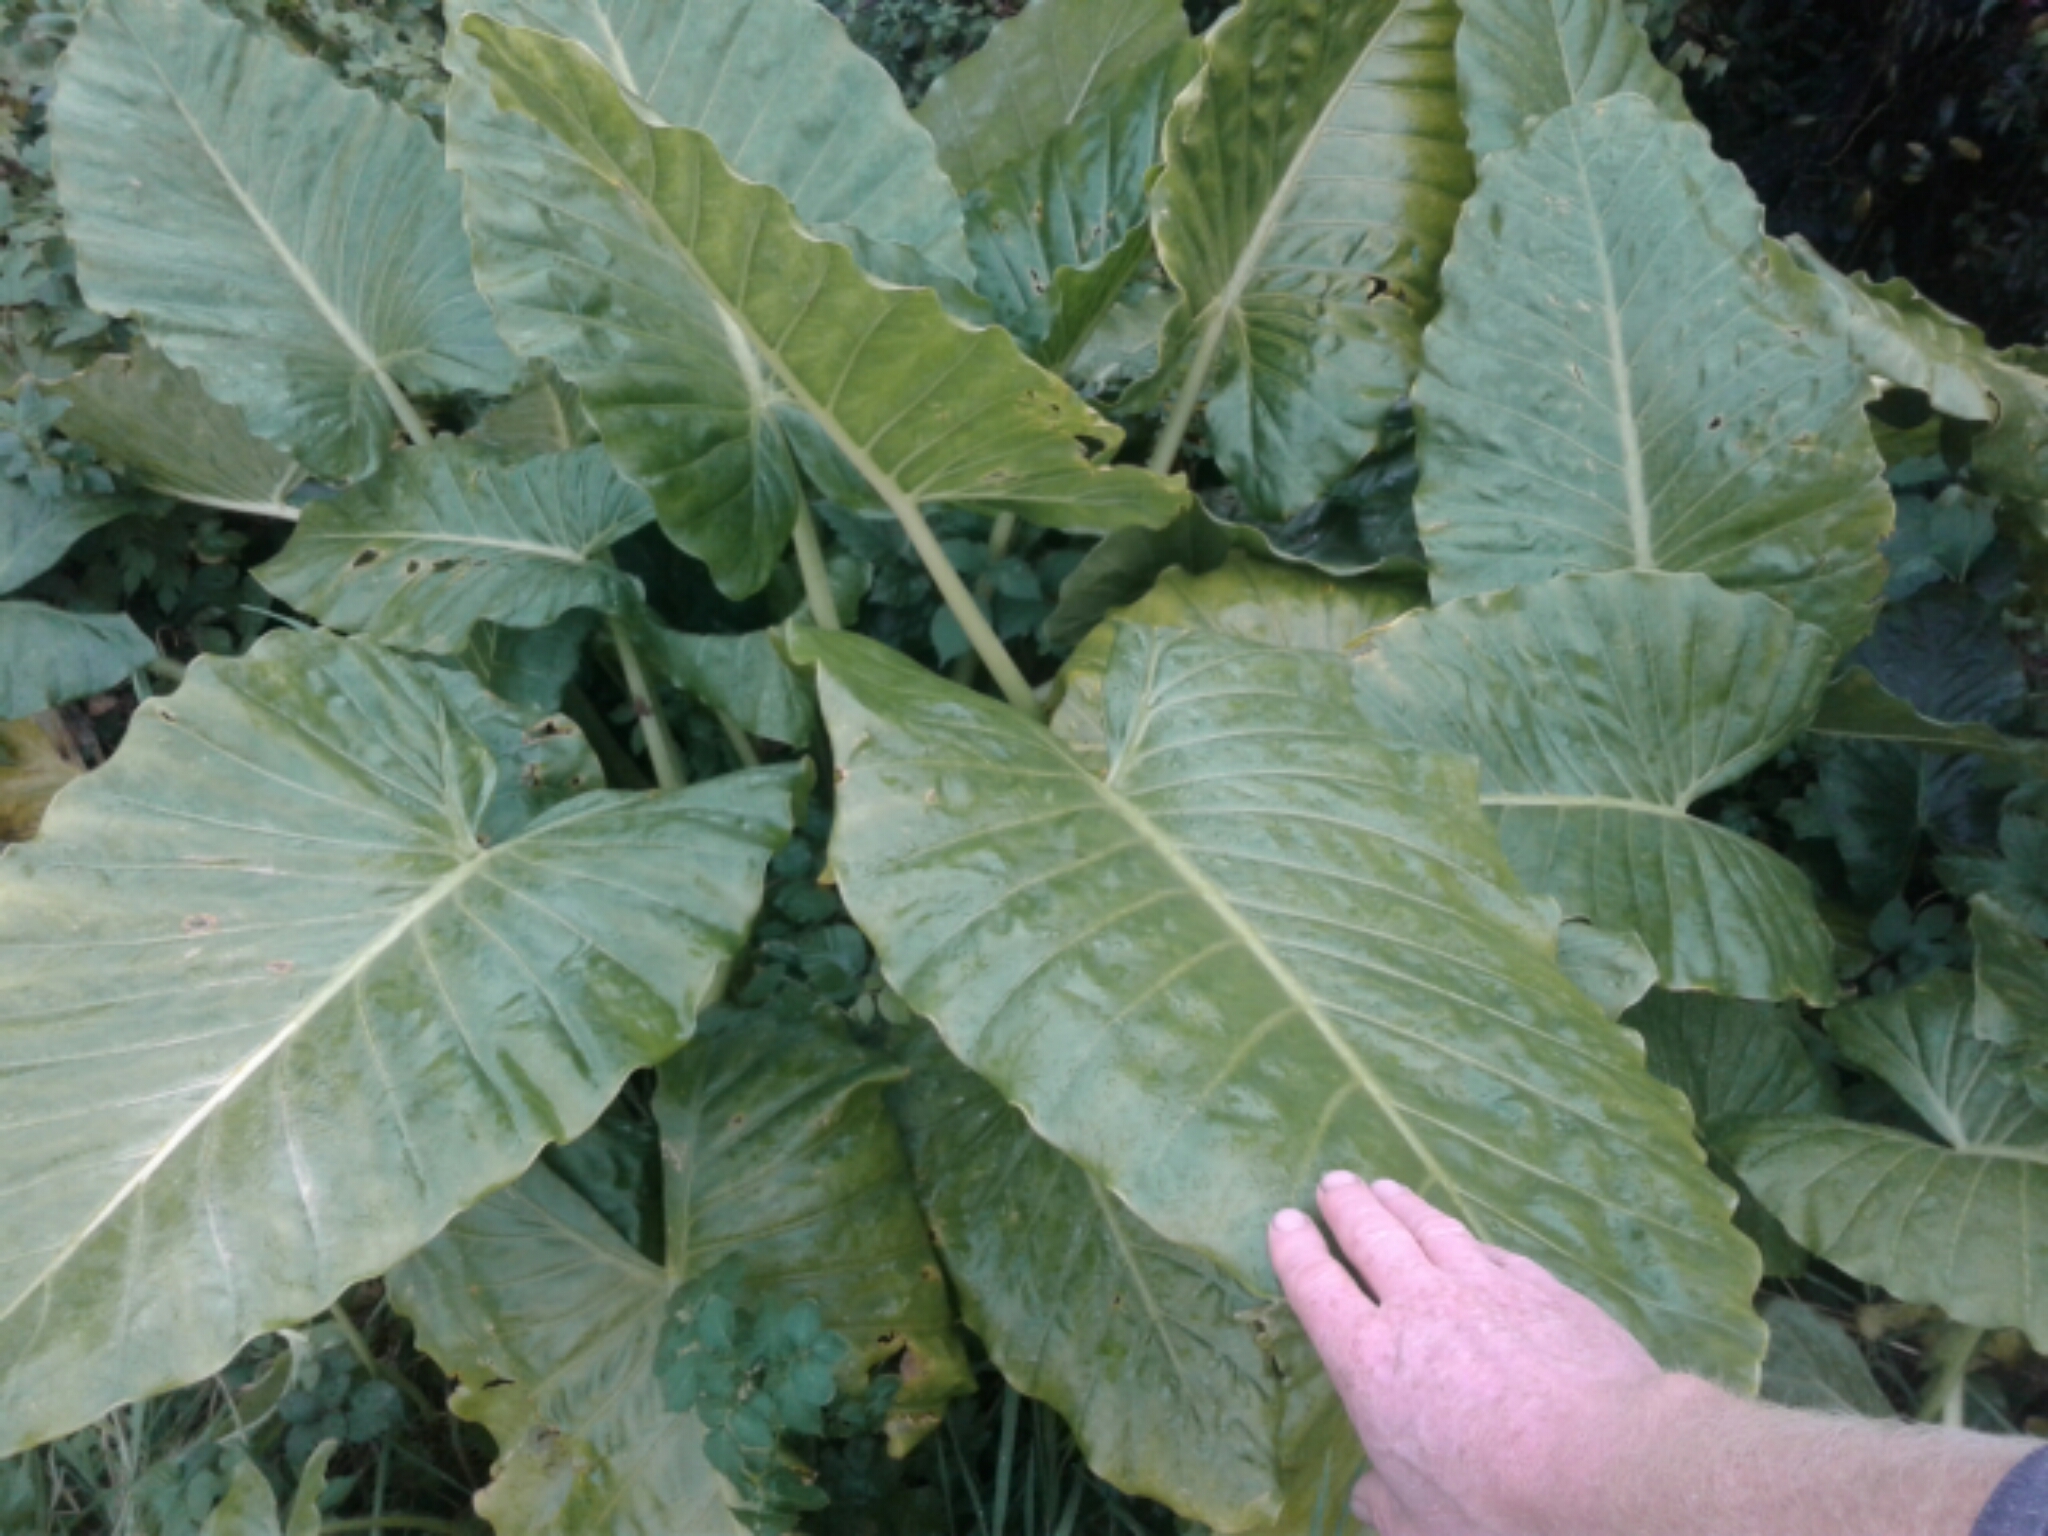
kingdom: Plantae
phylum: Tracheophyta
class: Liliopsida
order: Alismatales
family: Araceae
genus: Alocasia
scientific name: Alocasia brisbanensis
